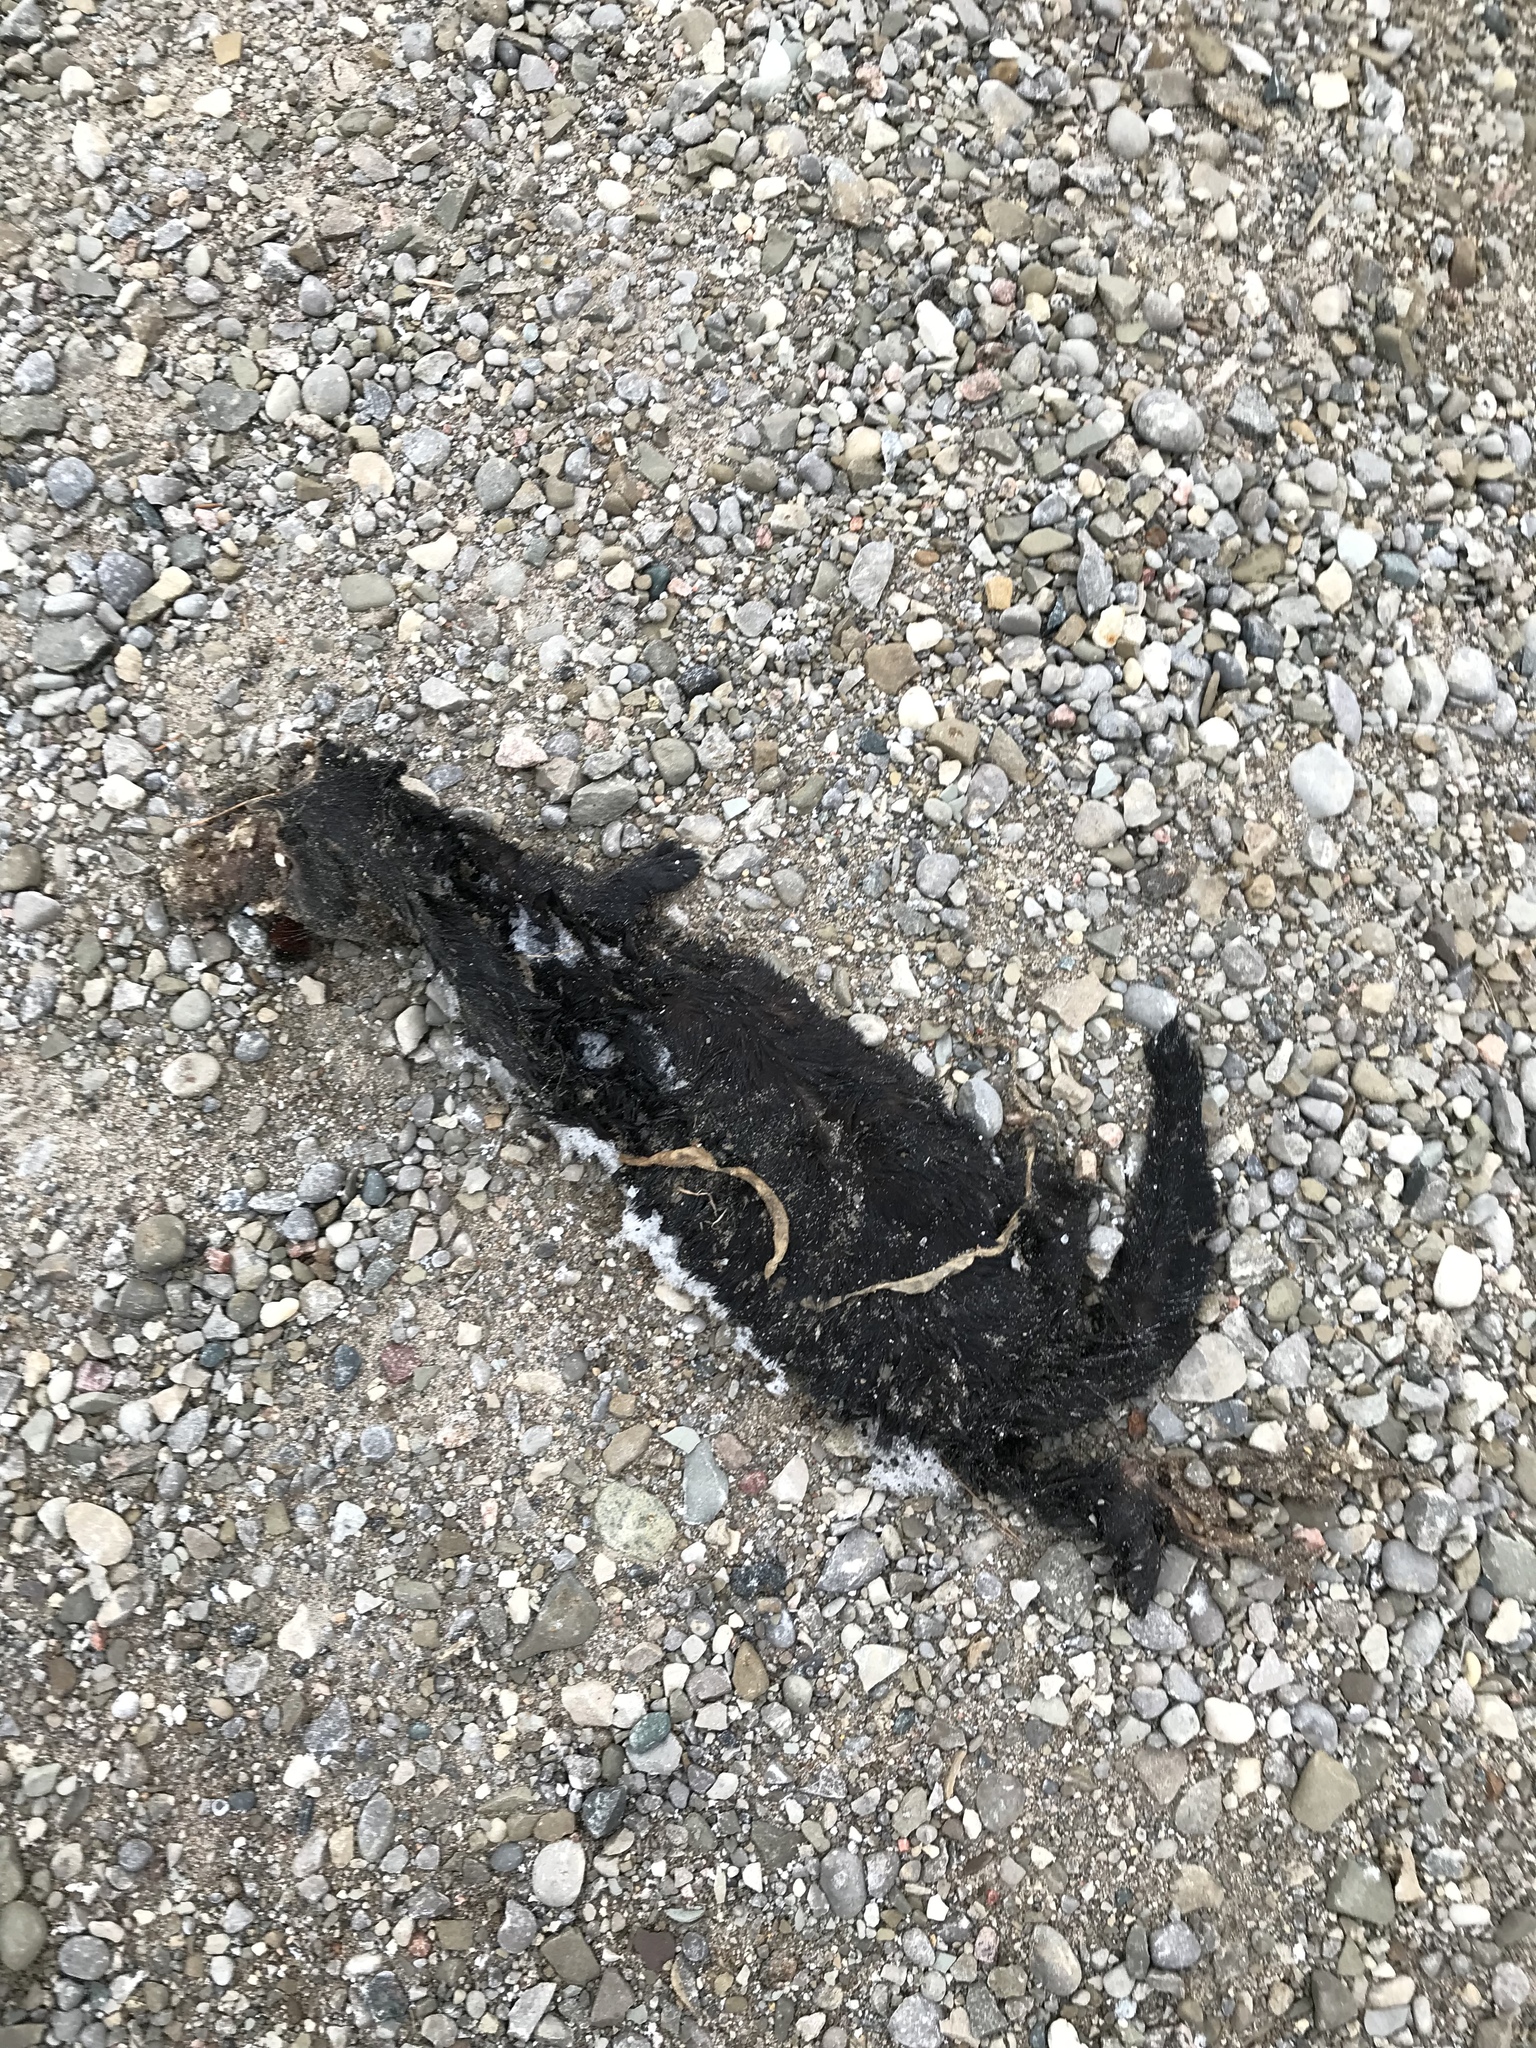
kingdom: Animalia
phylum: Chordata
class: Mammalia
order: Carnivora
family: Mustelidae
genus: Mustela
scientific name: Mustela
